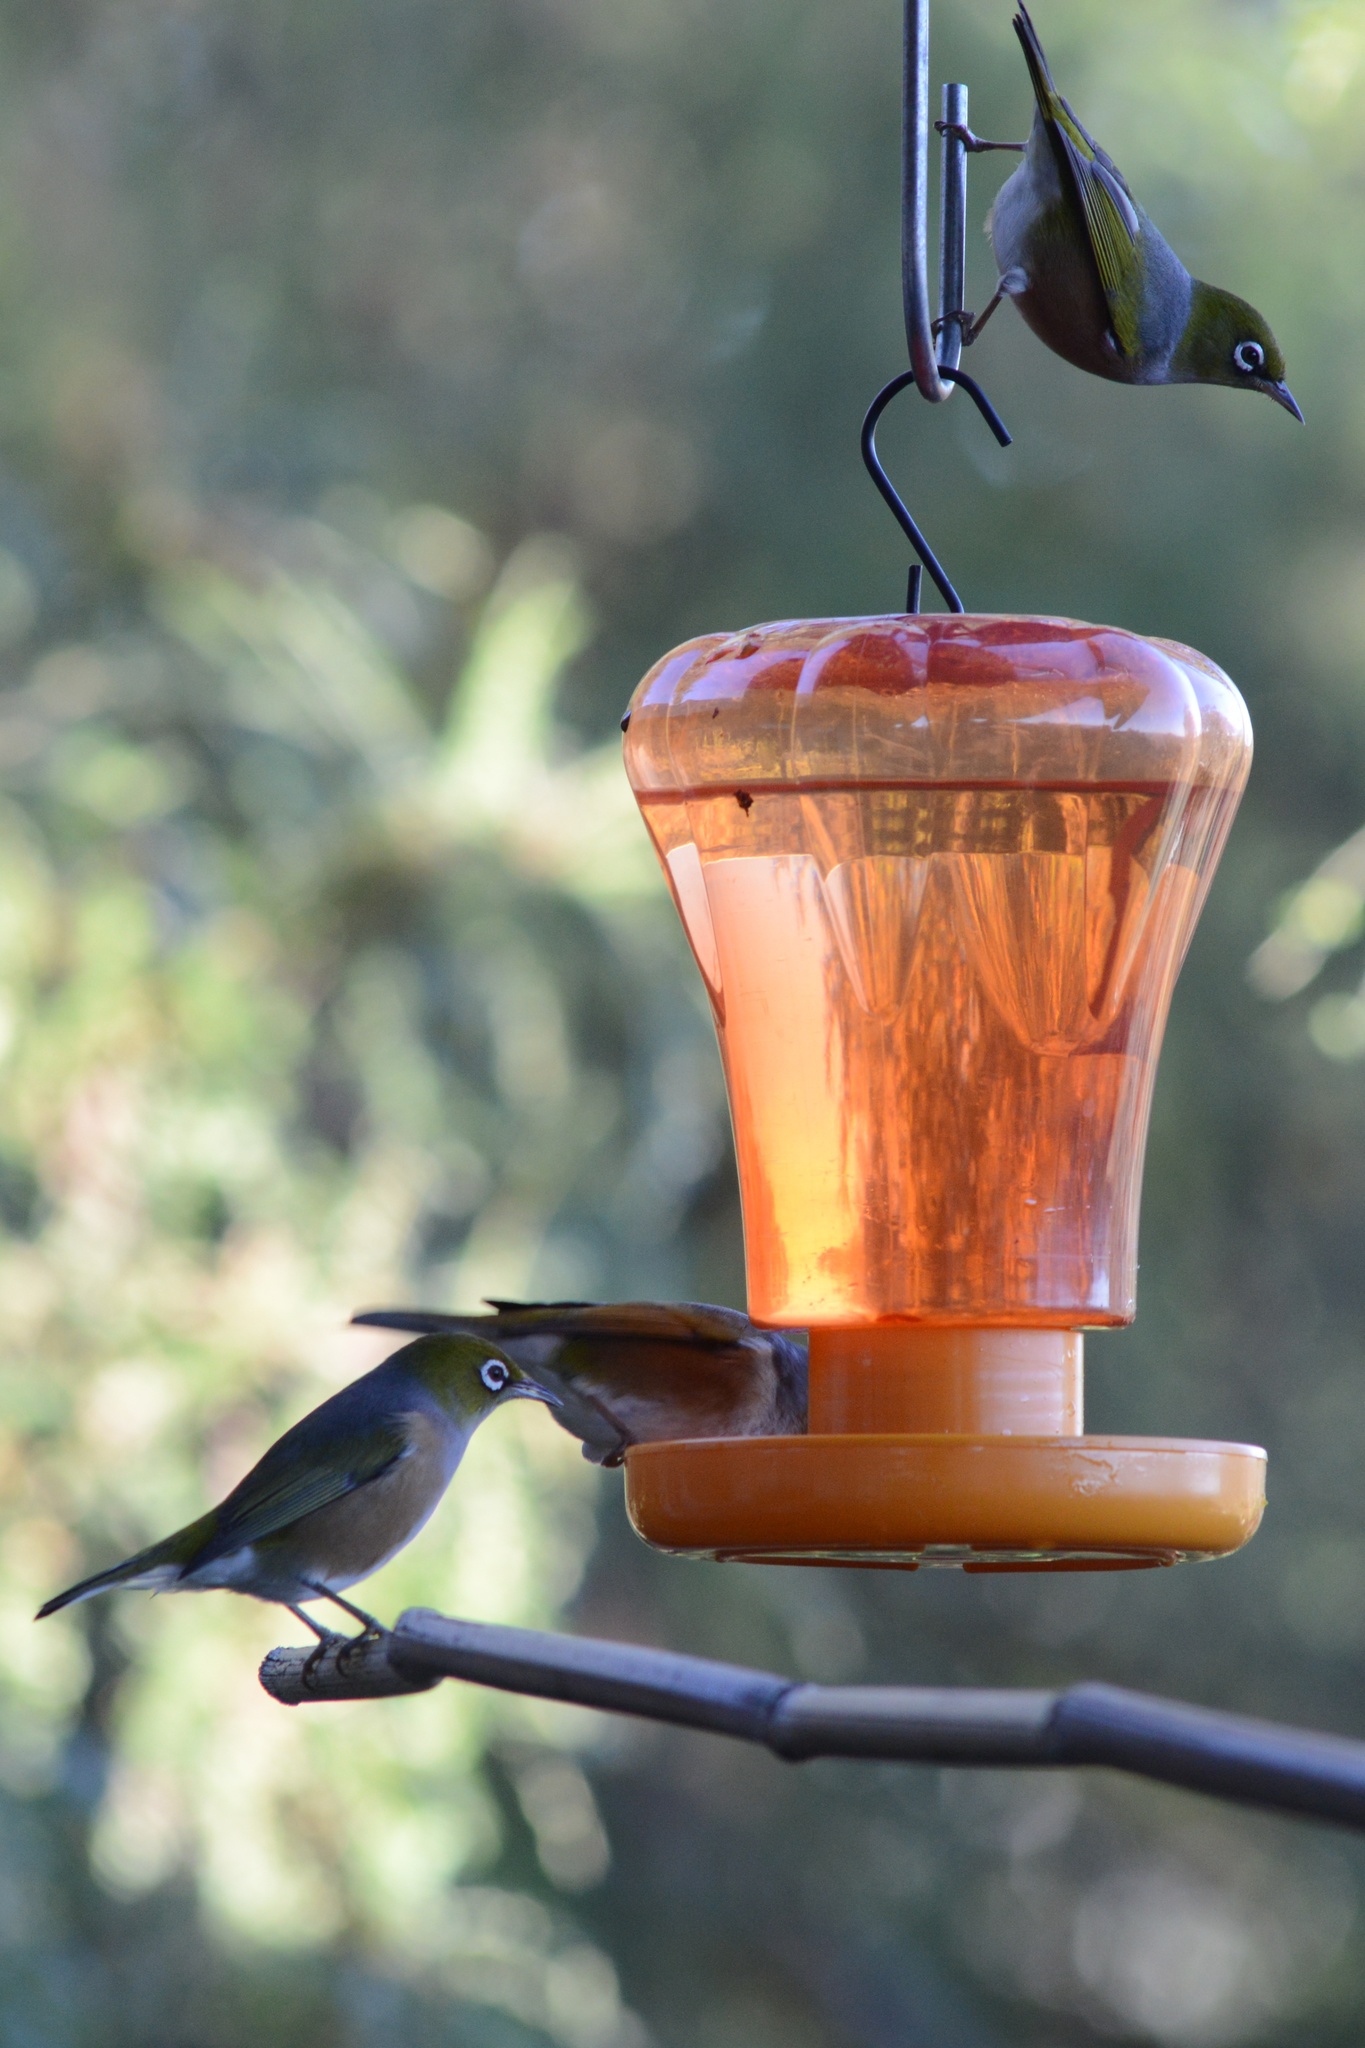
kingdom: Animalia
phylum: Chordata
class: Aves
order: Passeriformes
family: Zosteropidae
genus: Zosterops
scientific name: Zosterops lateralis
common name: Silvereye
